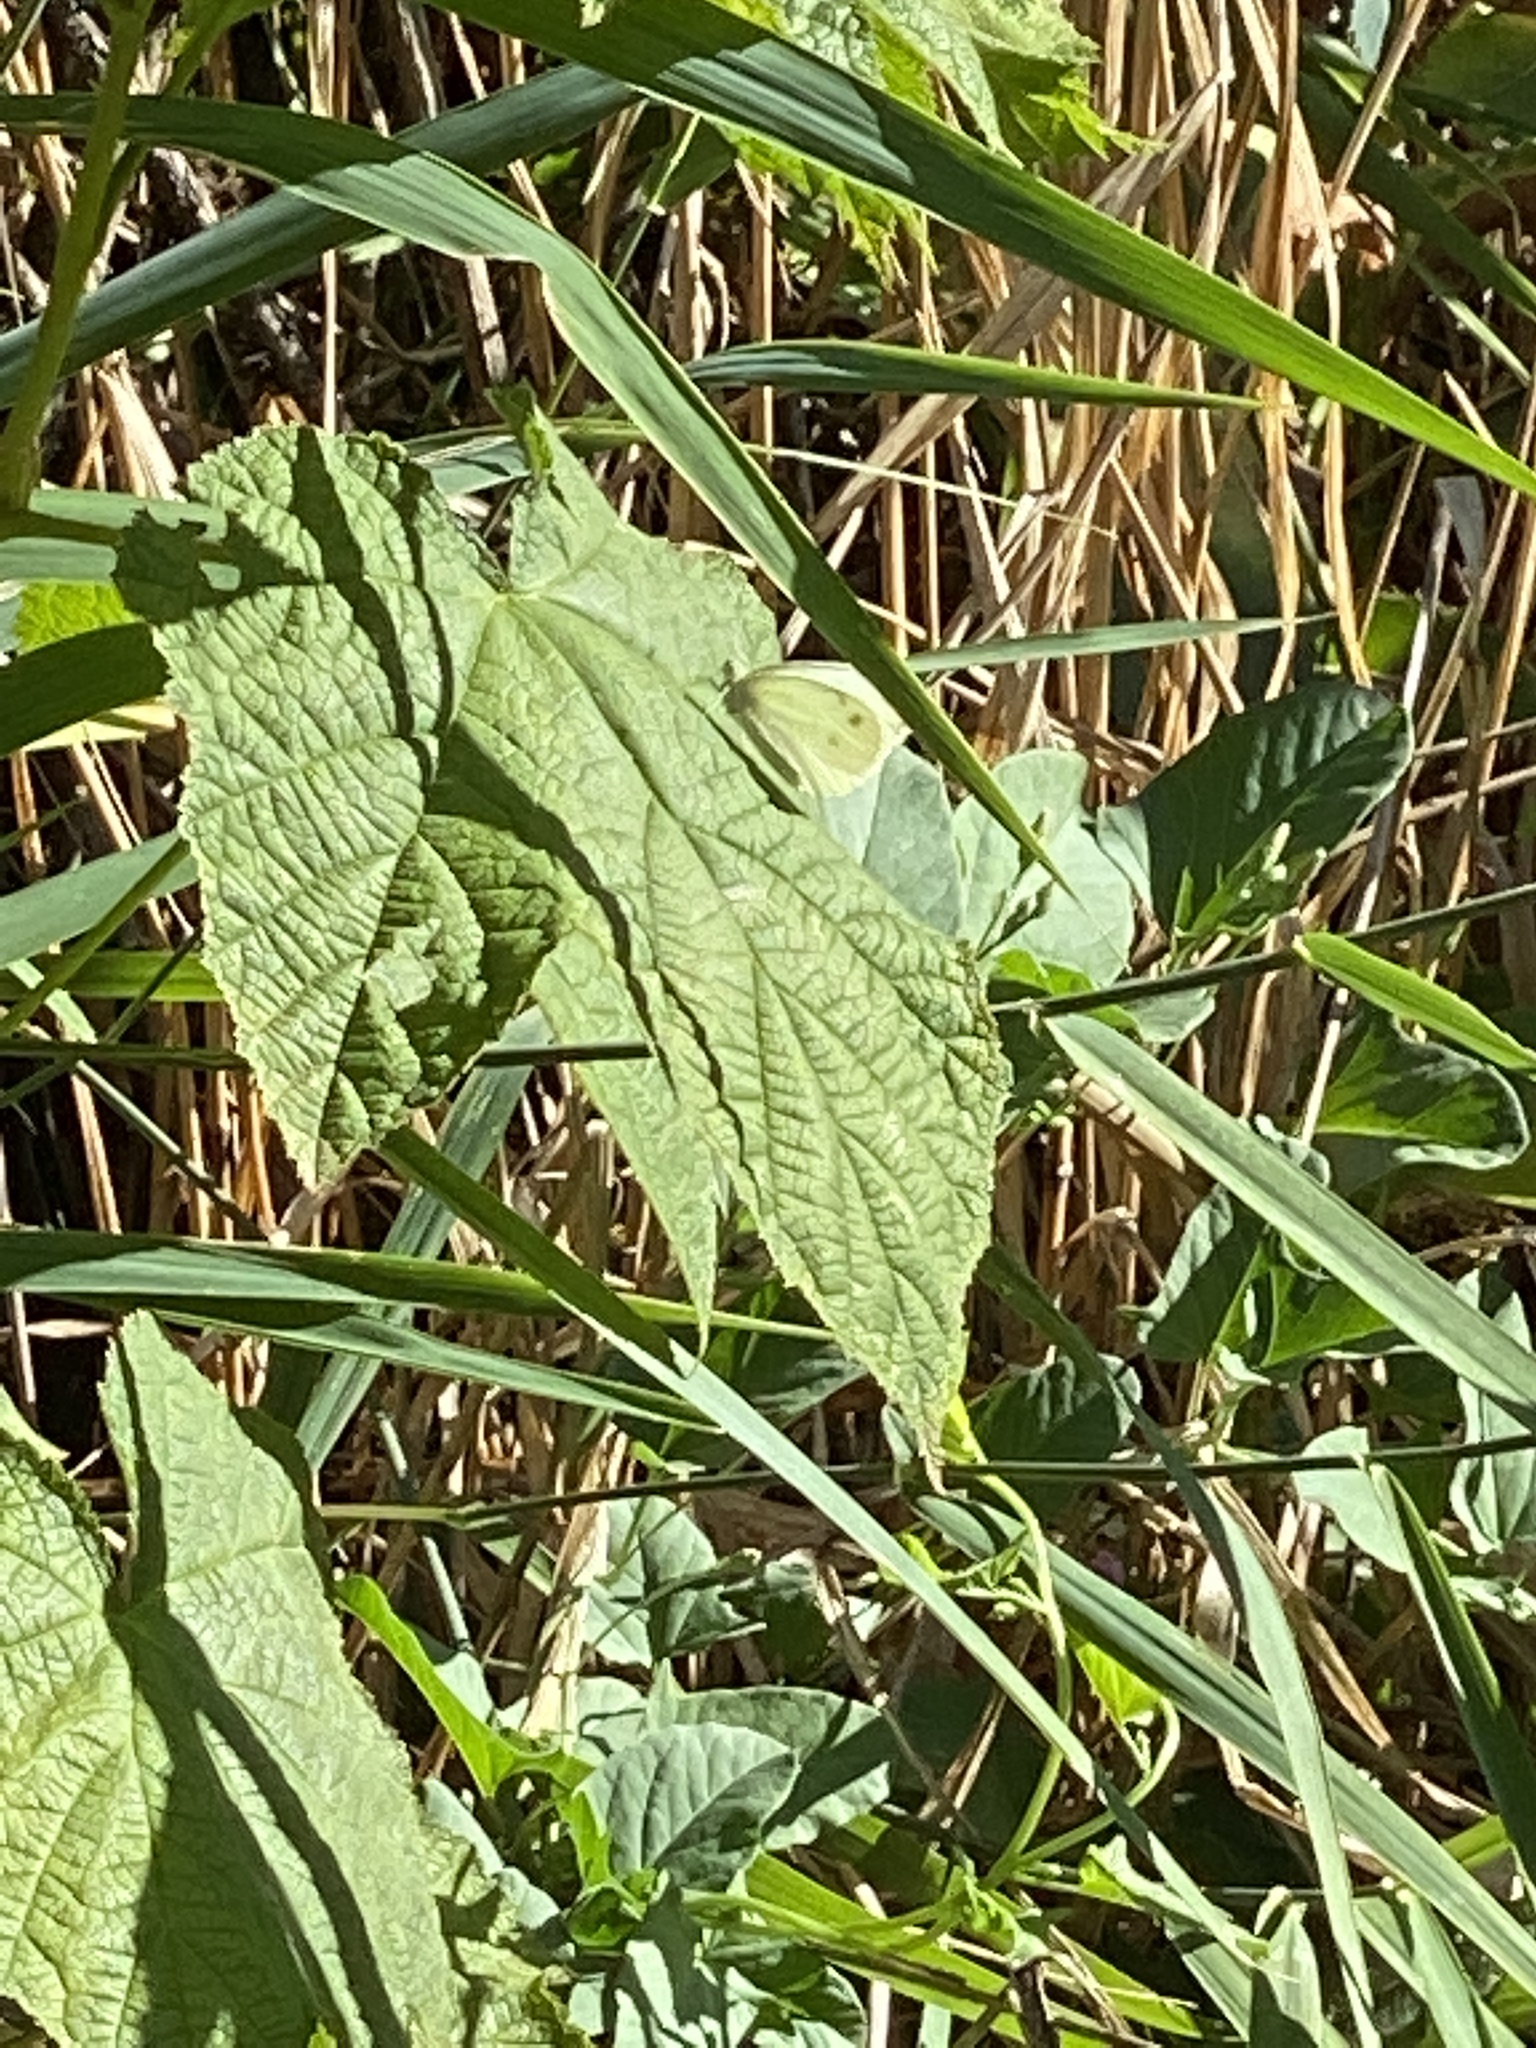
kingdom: Animalia
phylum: Arthropoda
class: Insecta
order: Lepidoptera
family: Pieridae
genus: Pieris
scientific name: Pieris rapae
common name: Small white
